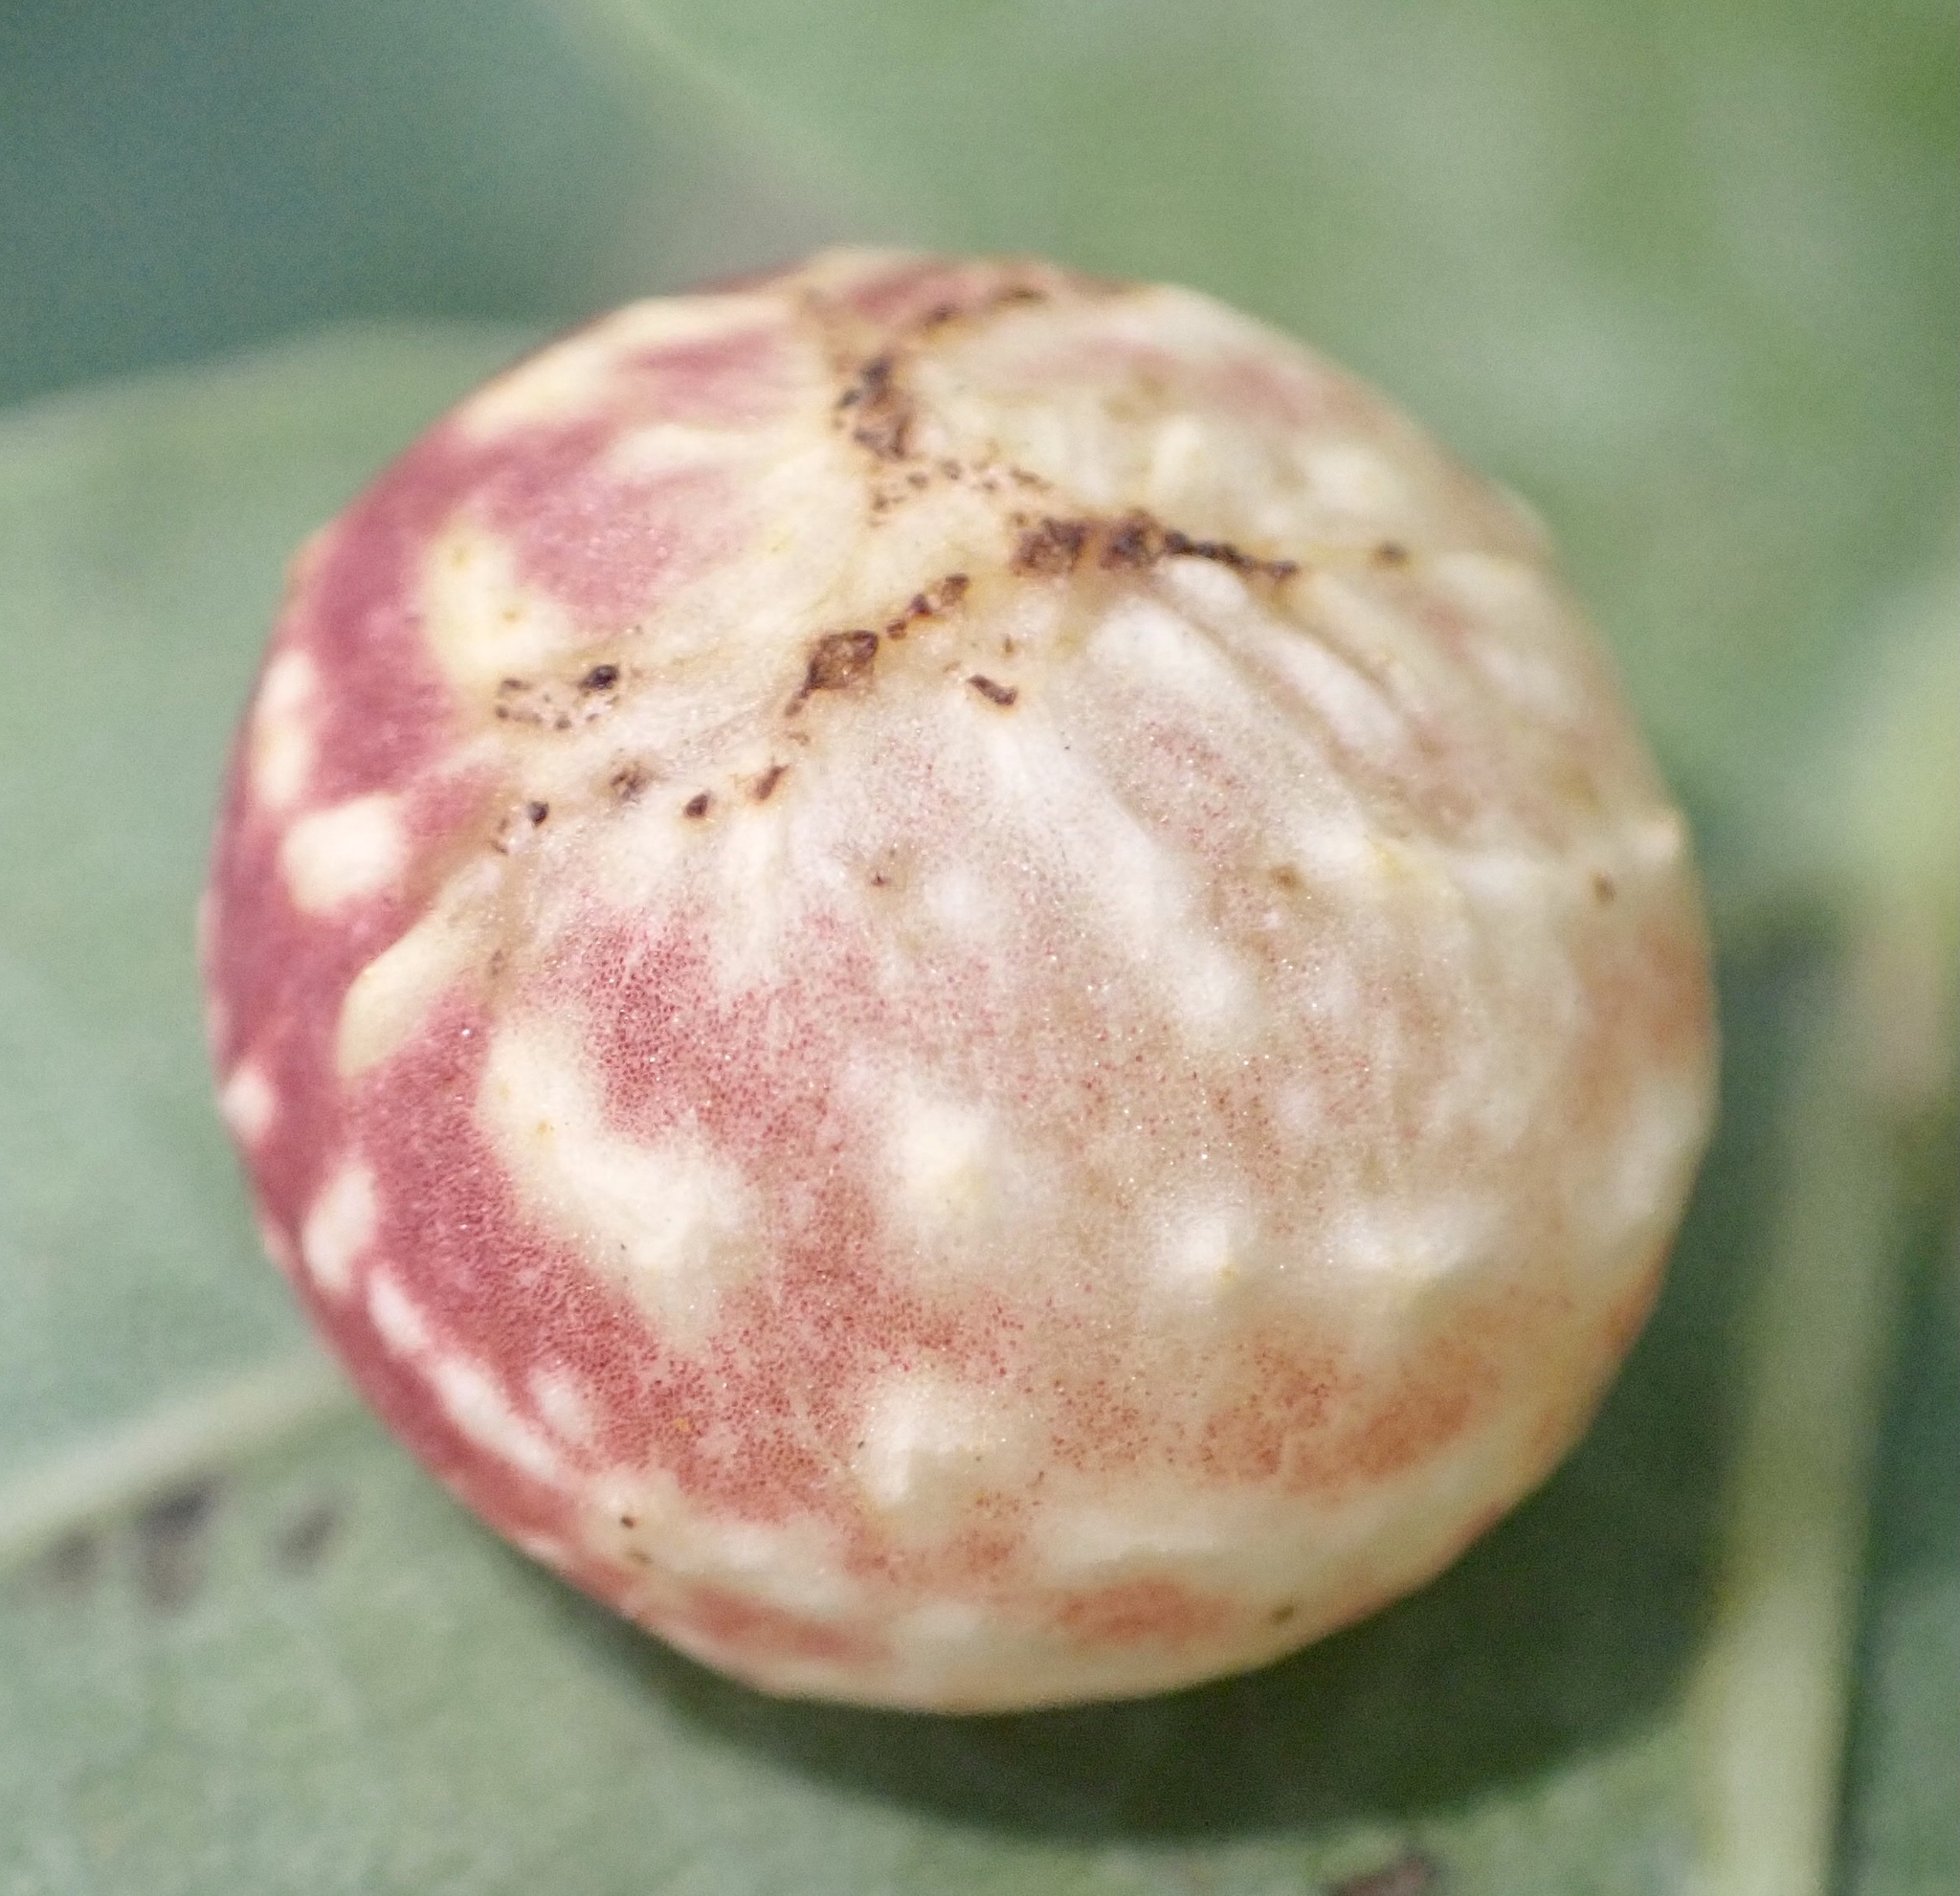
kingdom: Animalia
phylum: Arthropoda
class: Insecta
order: Hymenoptera
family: Cynipidae
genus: Cynips
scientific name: Cynips longiventris
